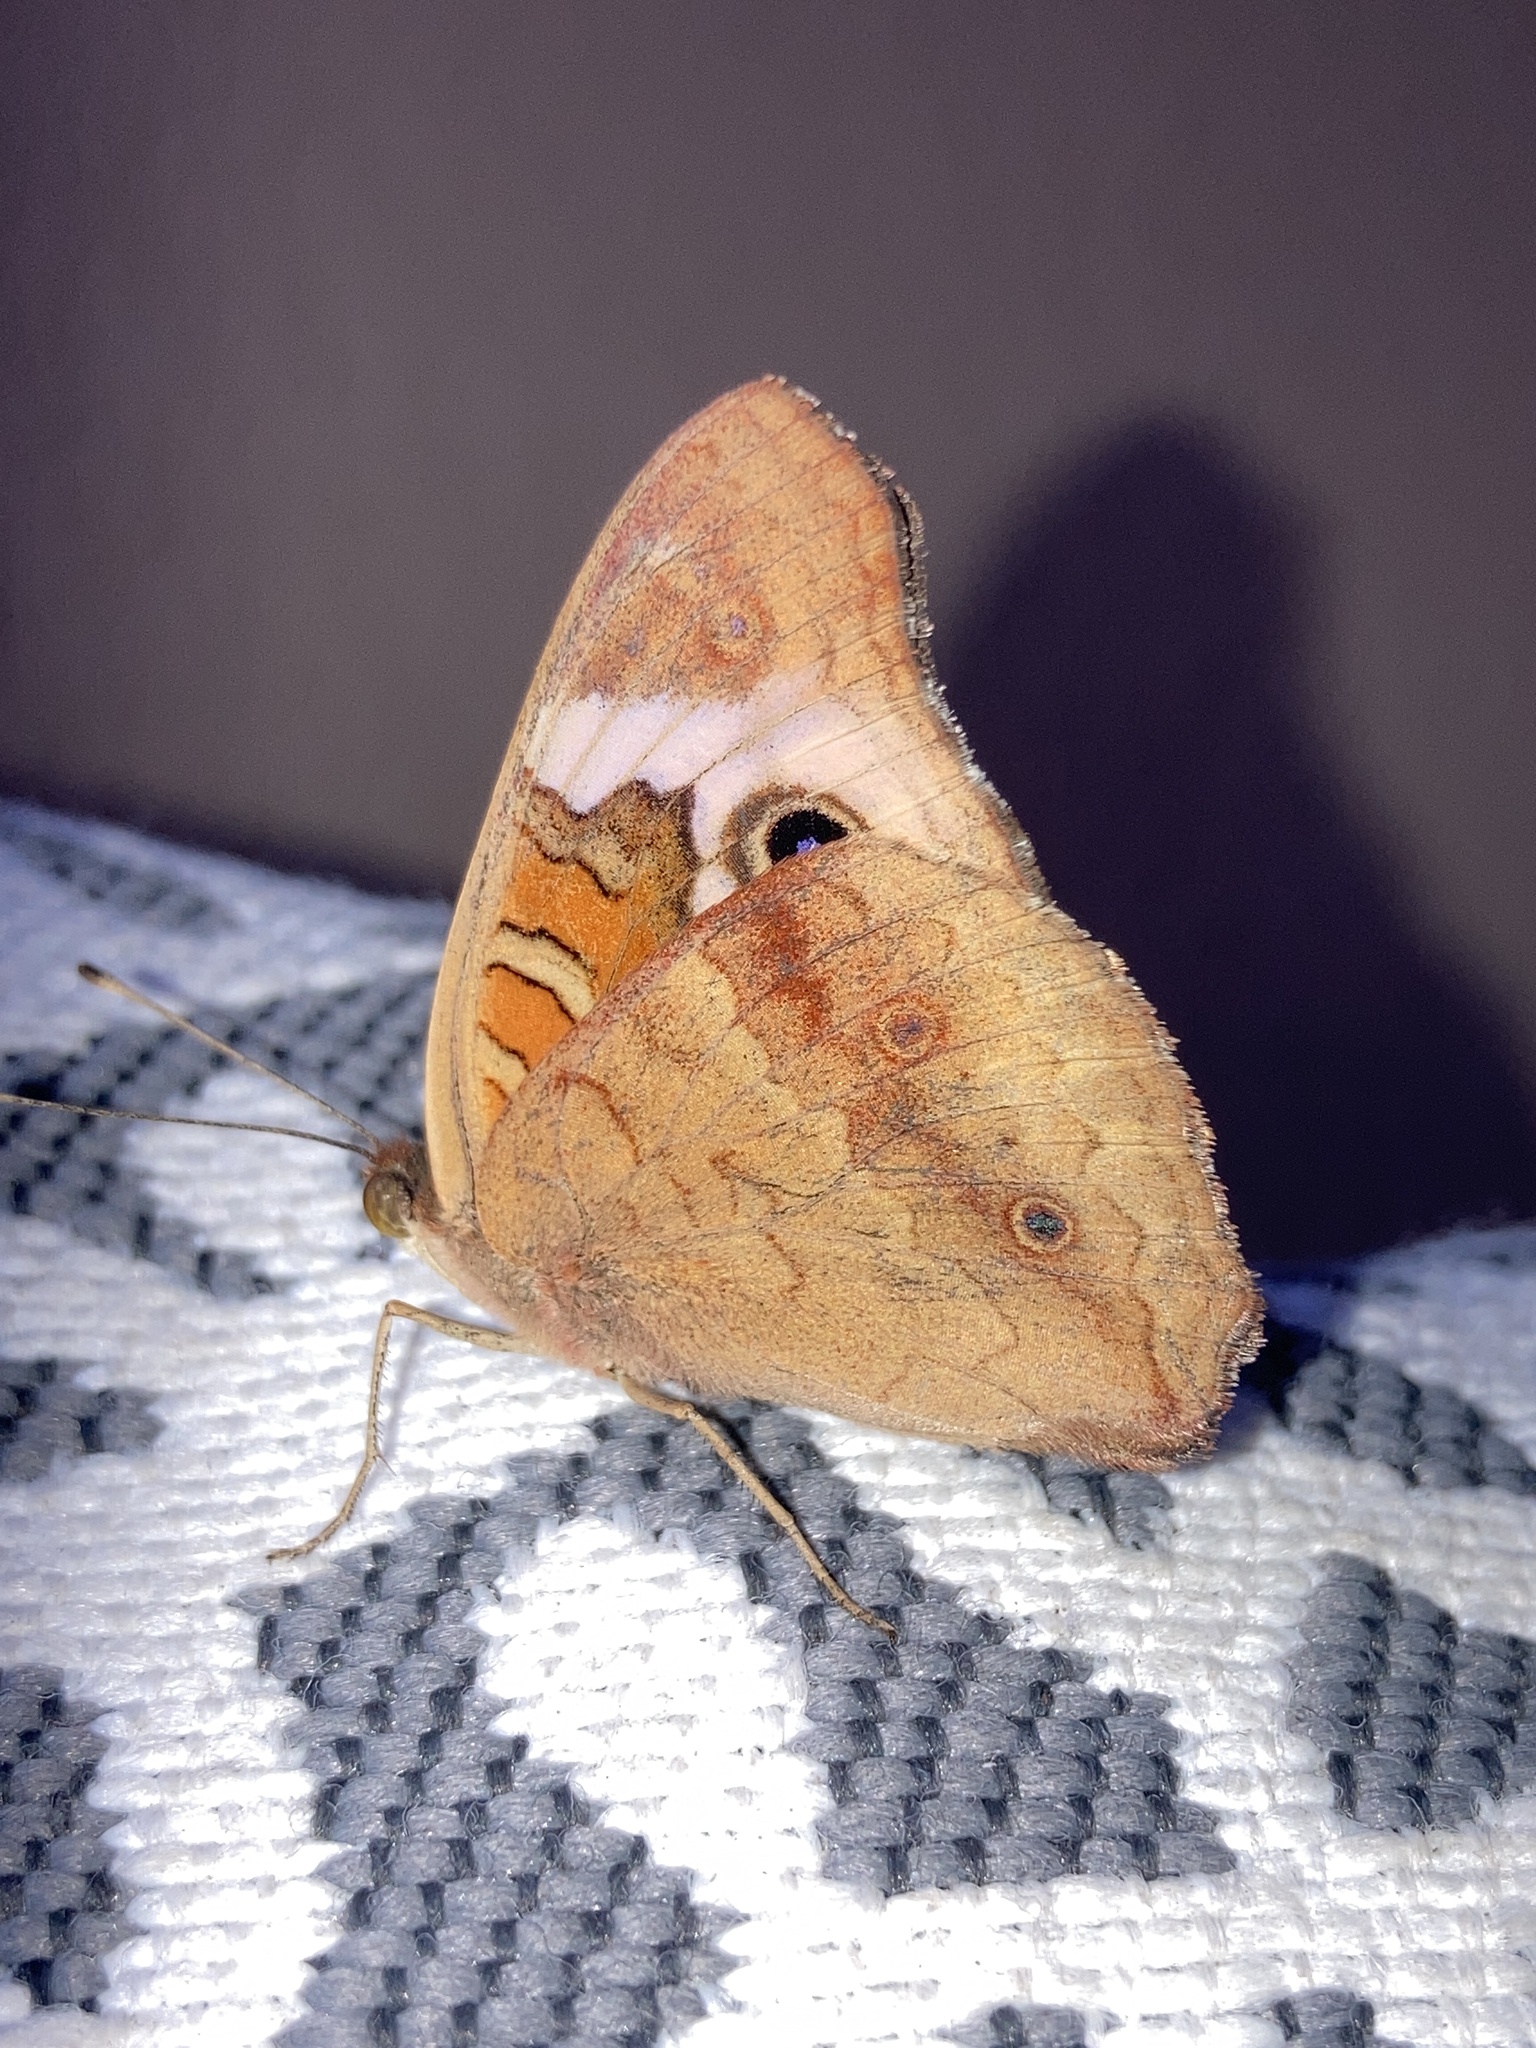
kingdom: Animalia
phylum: Arthropoda
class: Insecta
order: Lepidoptera
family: Nymphalidae
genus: Junonia
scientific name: Junonia coenia
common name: Common buckeye
